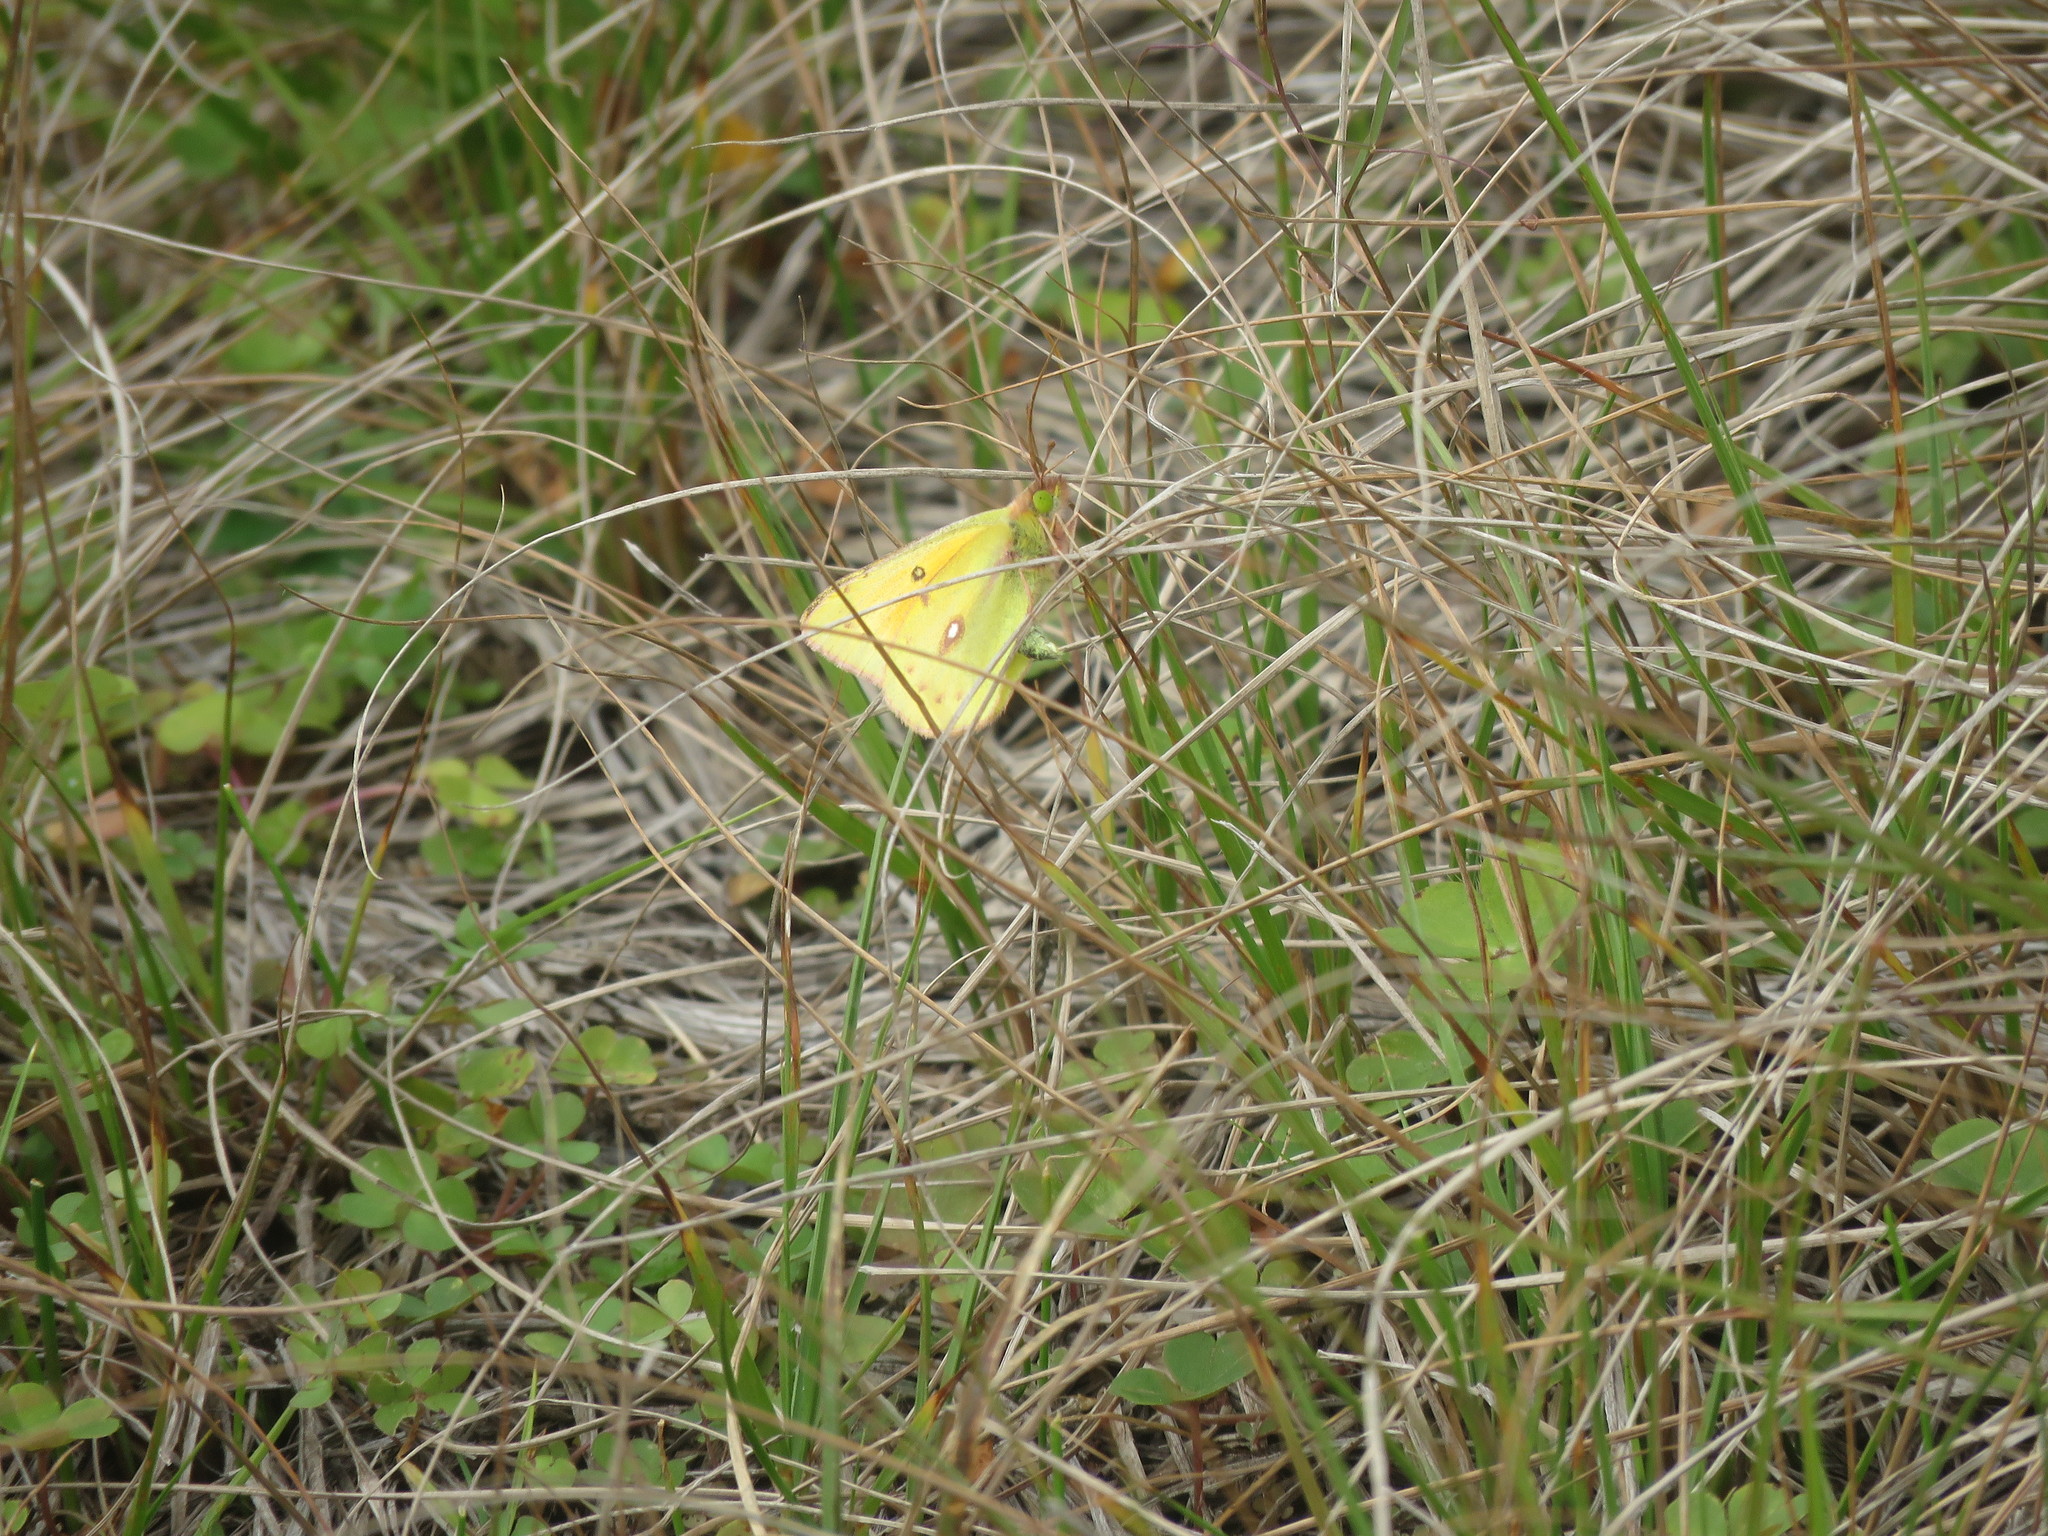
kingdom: Animalia
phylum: Arthropoda
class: Insecta
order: Lepidoptera
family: Pieridae
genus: Colias
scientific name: Colias lesbia
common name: Lesbia clouded yellow
